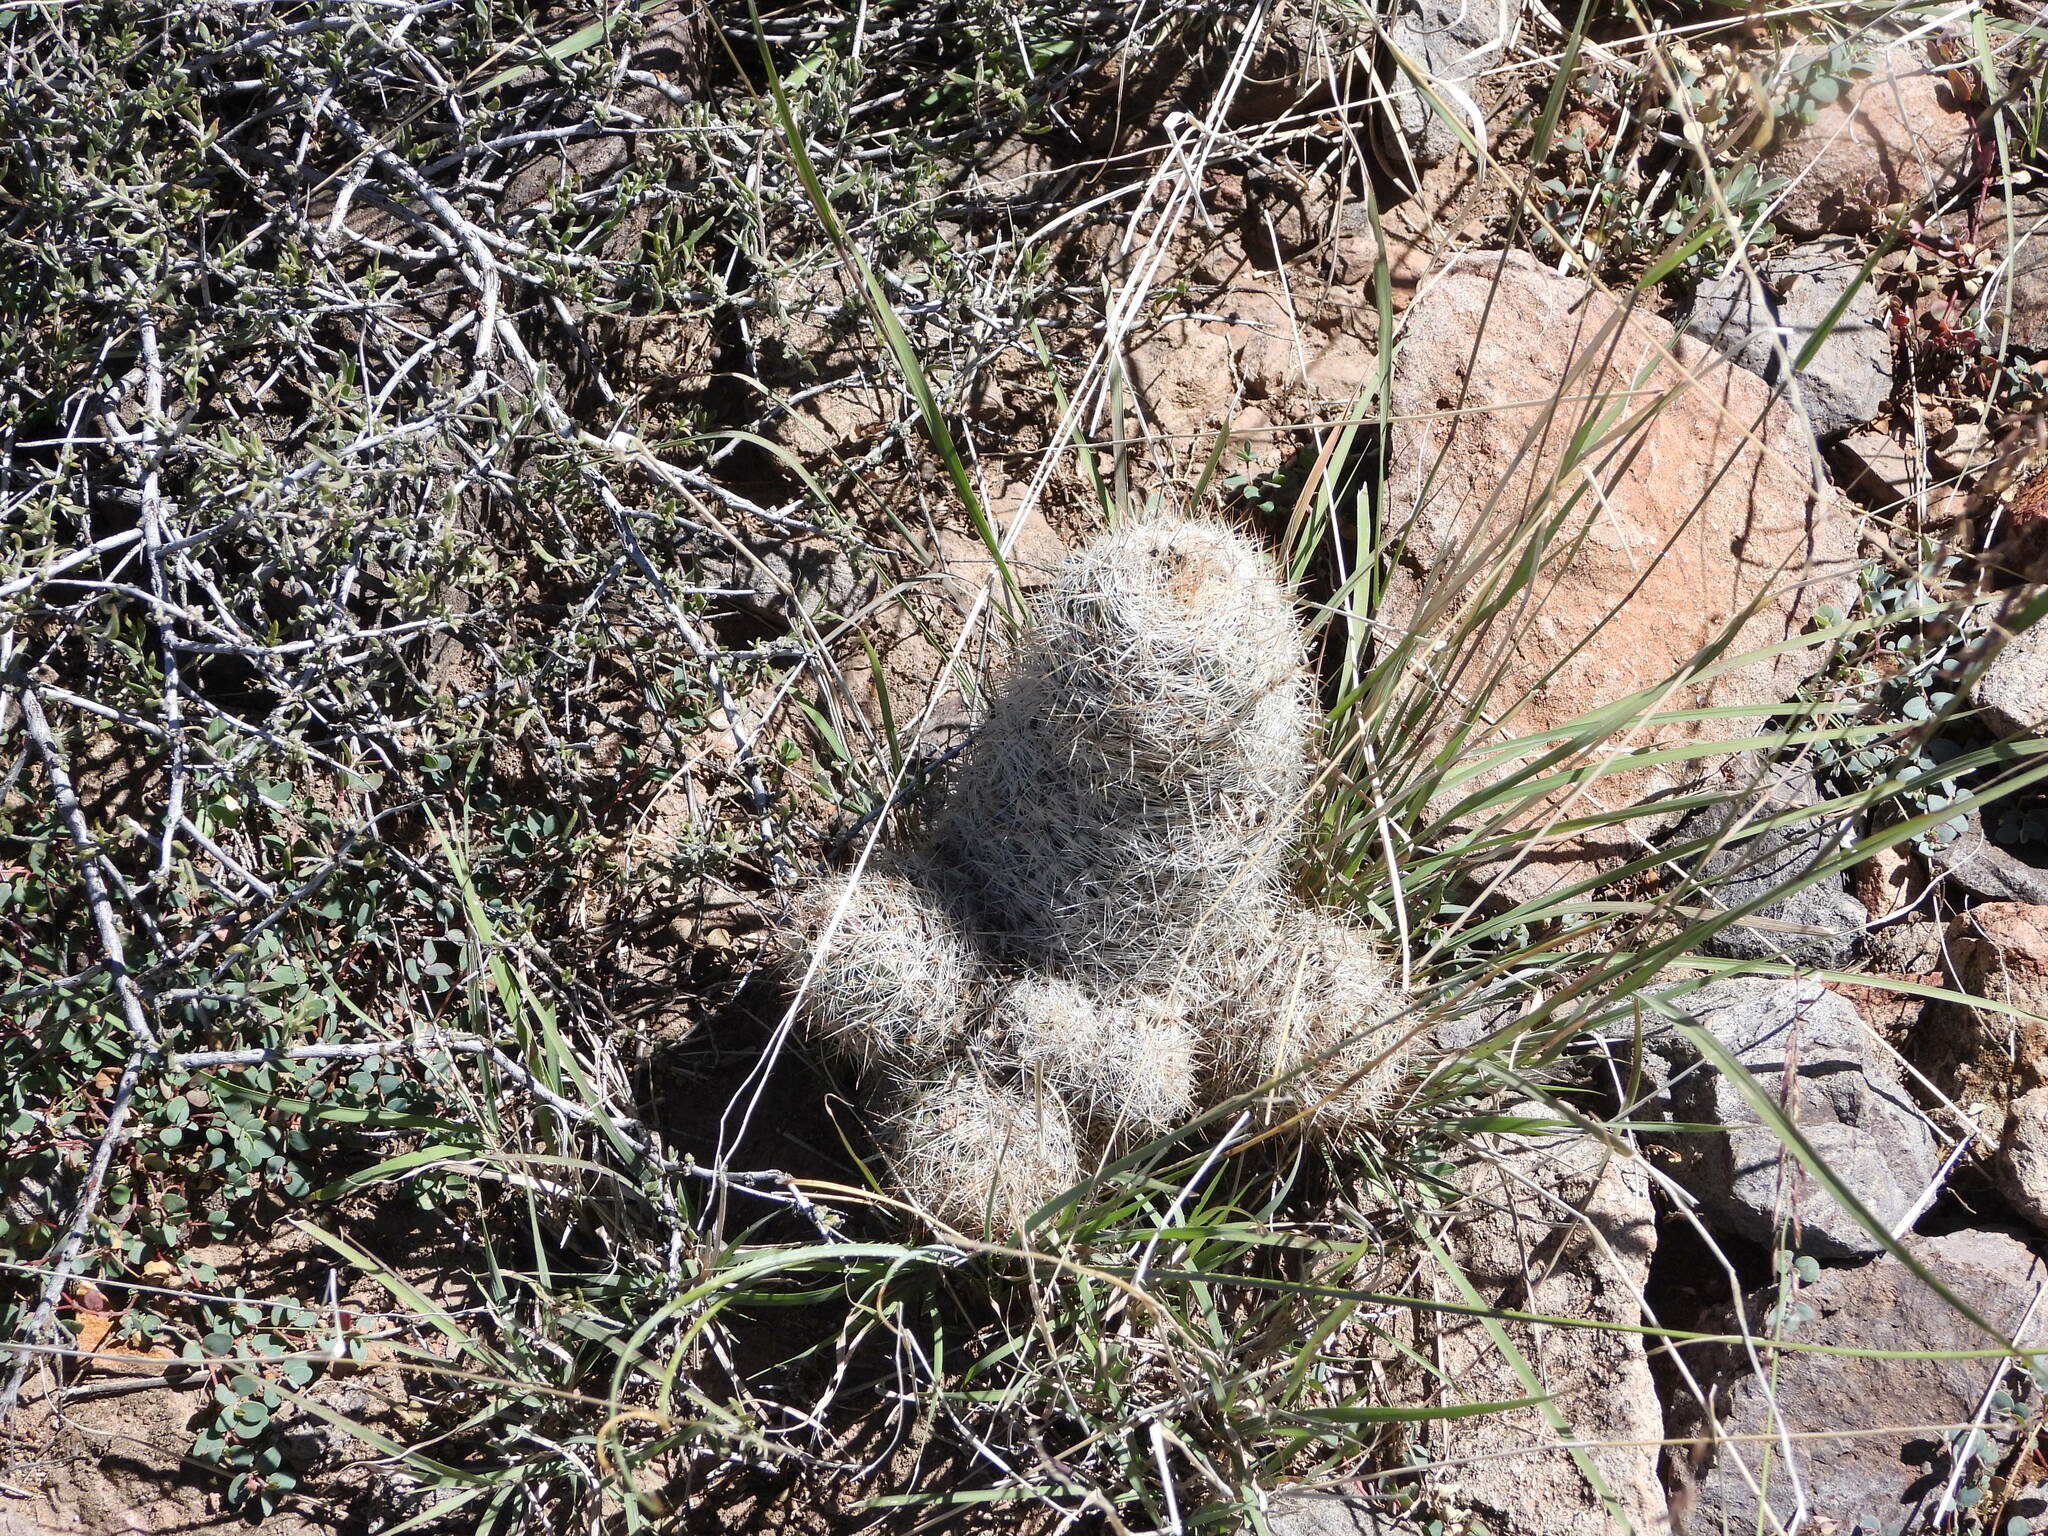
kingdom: Plantae
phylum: Tracheophyta
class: Magnoliopsida
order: Caryophyllales
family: Cactaceae
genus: Pelecyphora
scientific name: Pelecyphora tuberculosa
